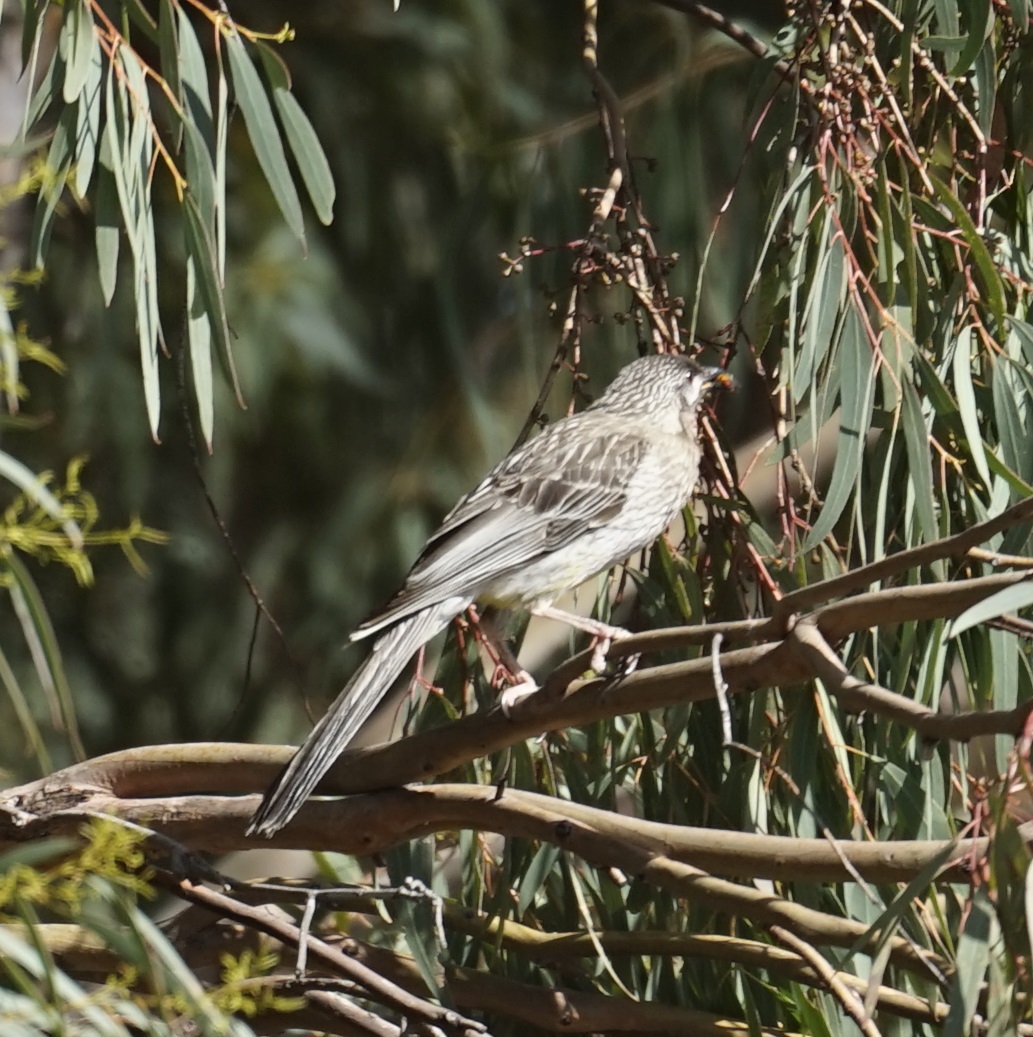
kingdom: Animalia
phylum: Chordata
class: Aves
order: Passeriformes
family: Meliphagidae
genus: Anthochaera
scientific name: Anthochaera carunculata
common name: Red wattlebird
